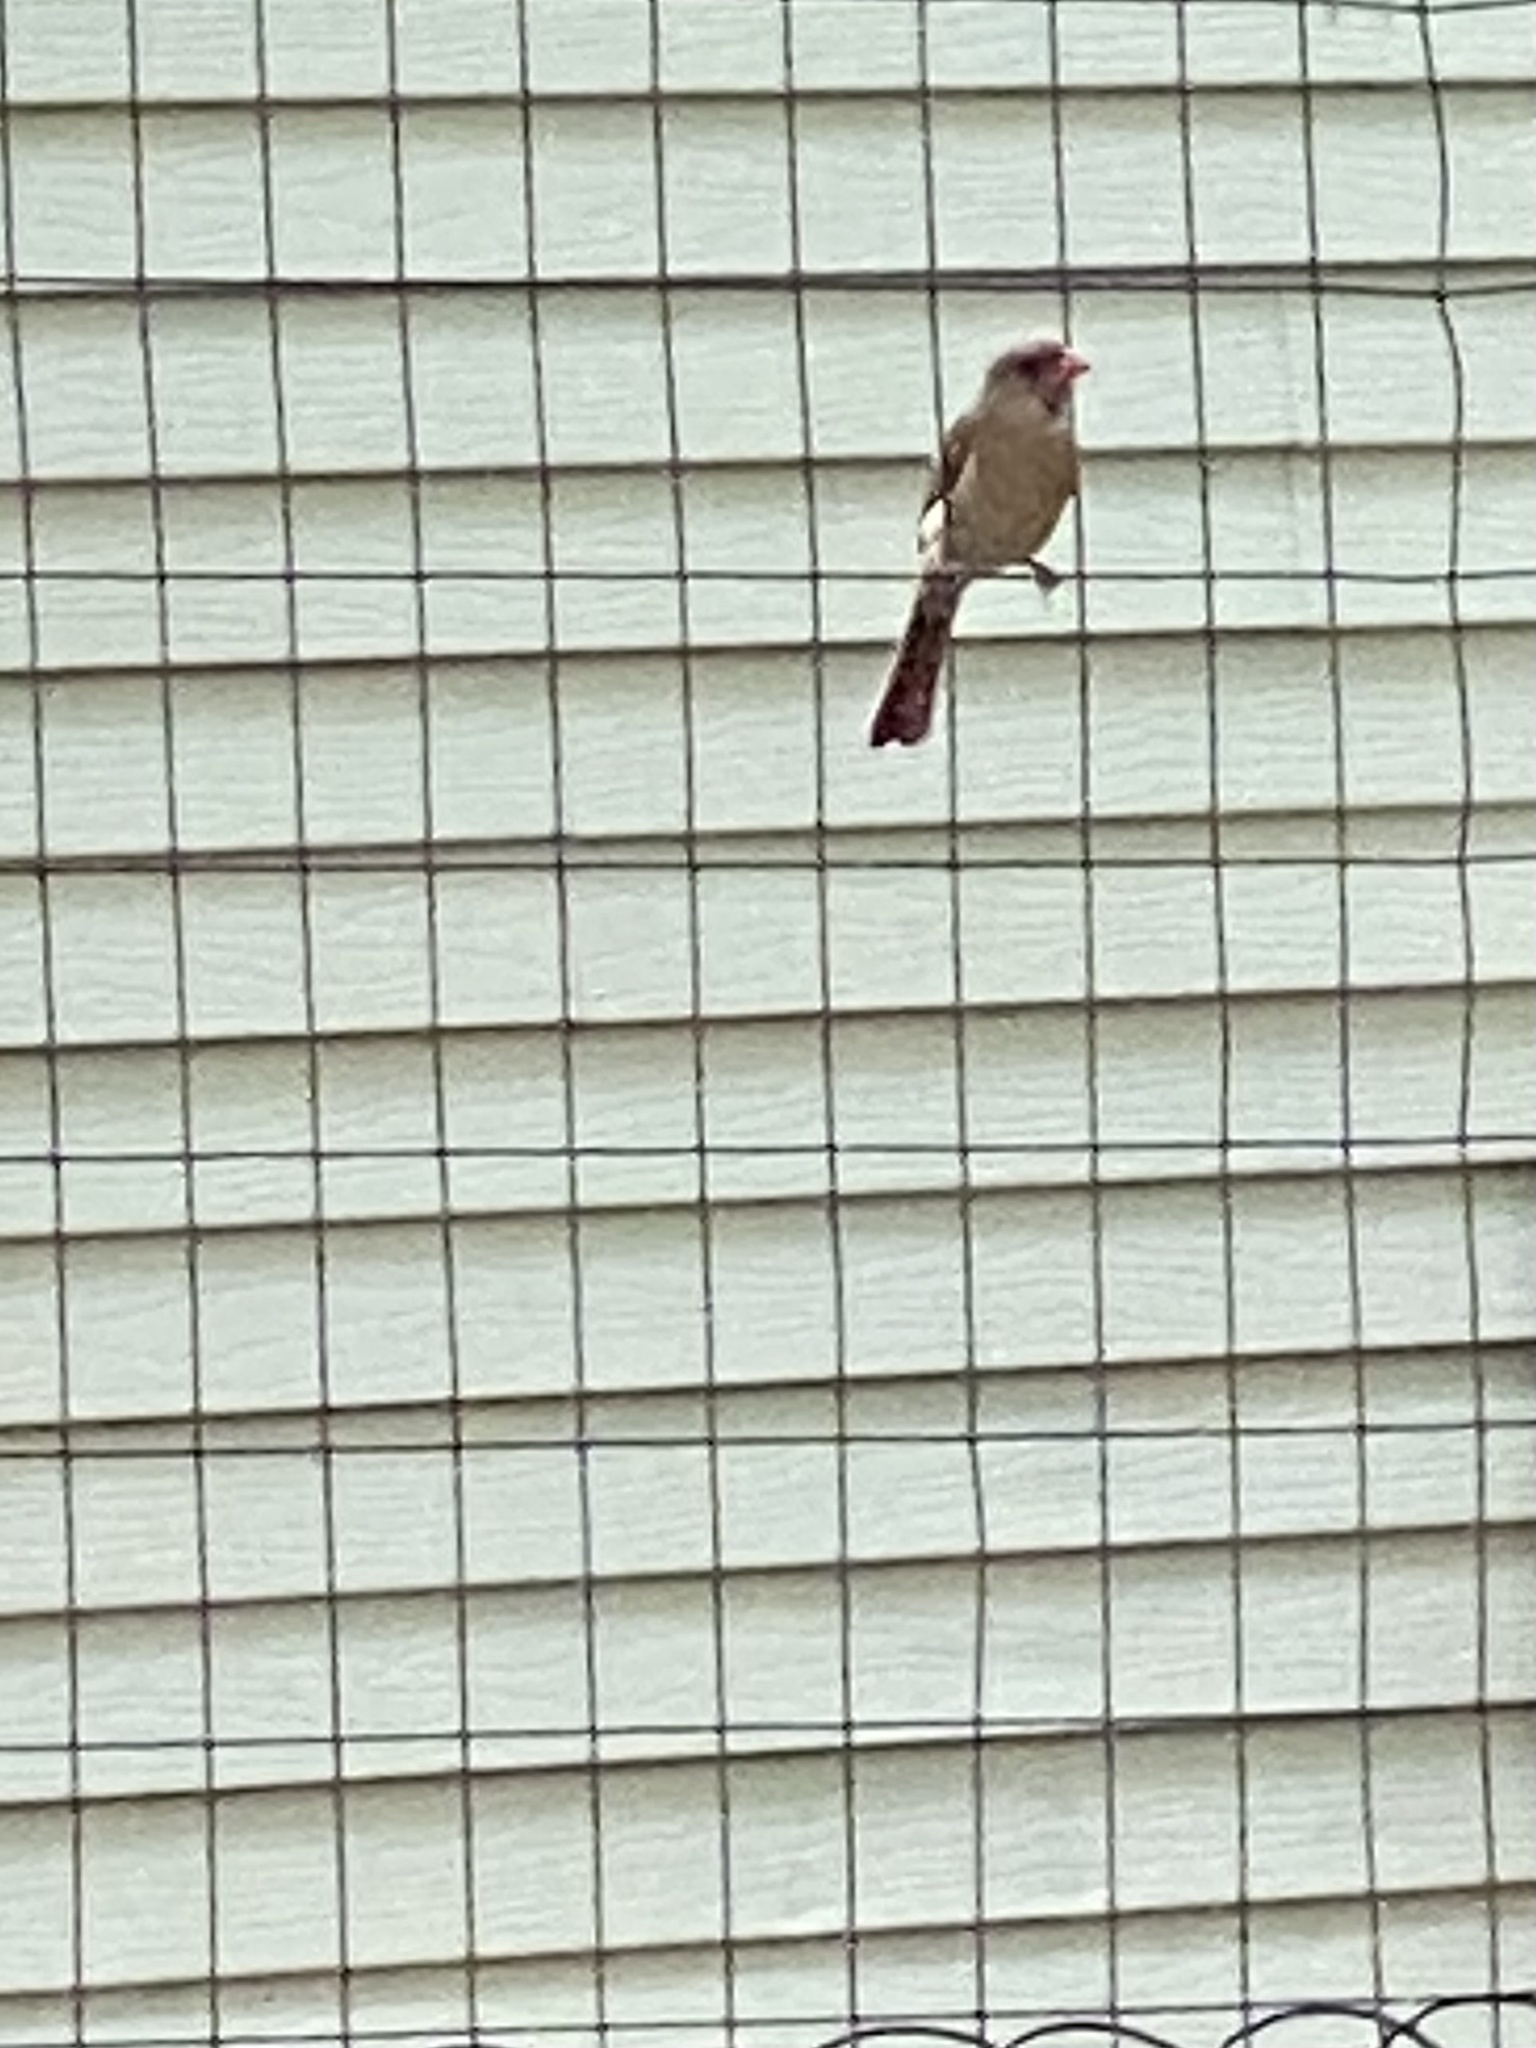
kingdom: Animalia
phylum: Chordata
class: Aves
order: Passeriformes
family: Cardinalidae
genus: Cardinalis
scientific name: Cardinalis cardinalis
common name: Northern cardinal
